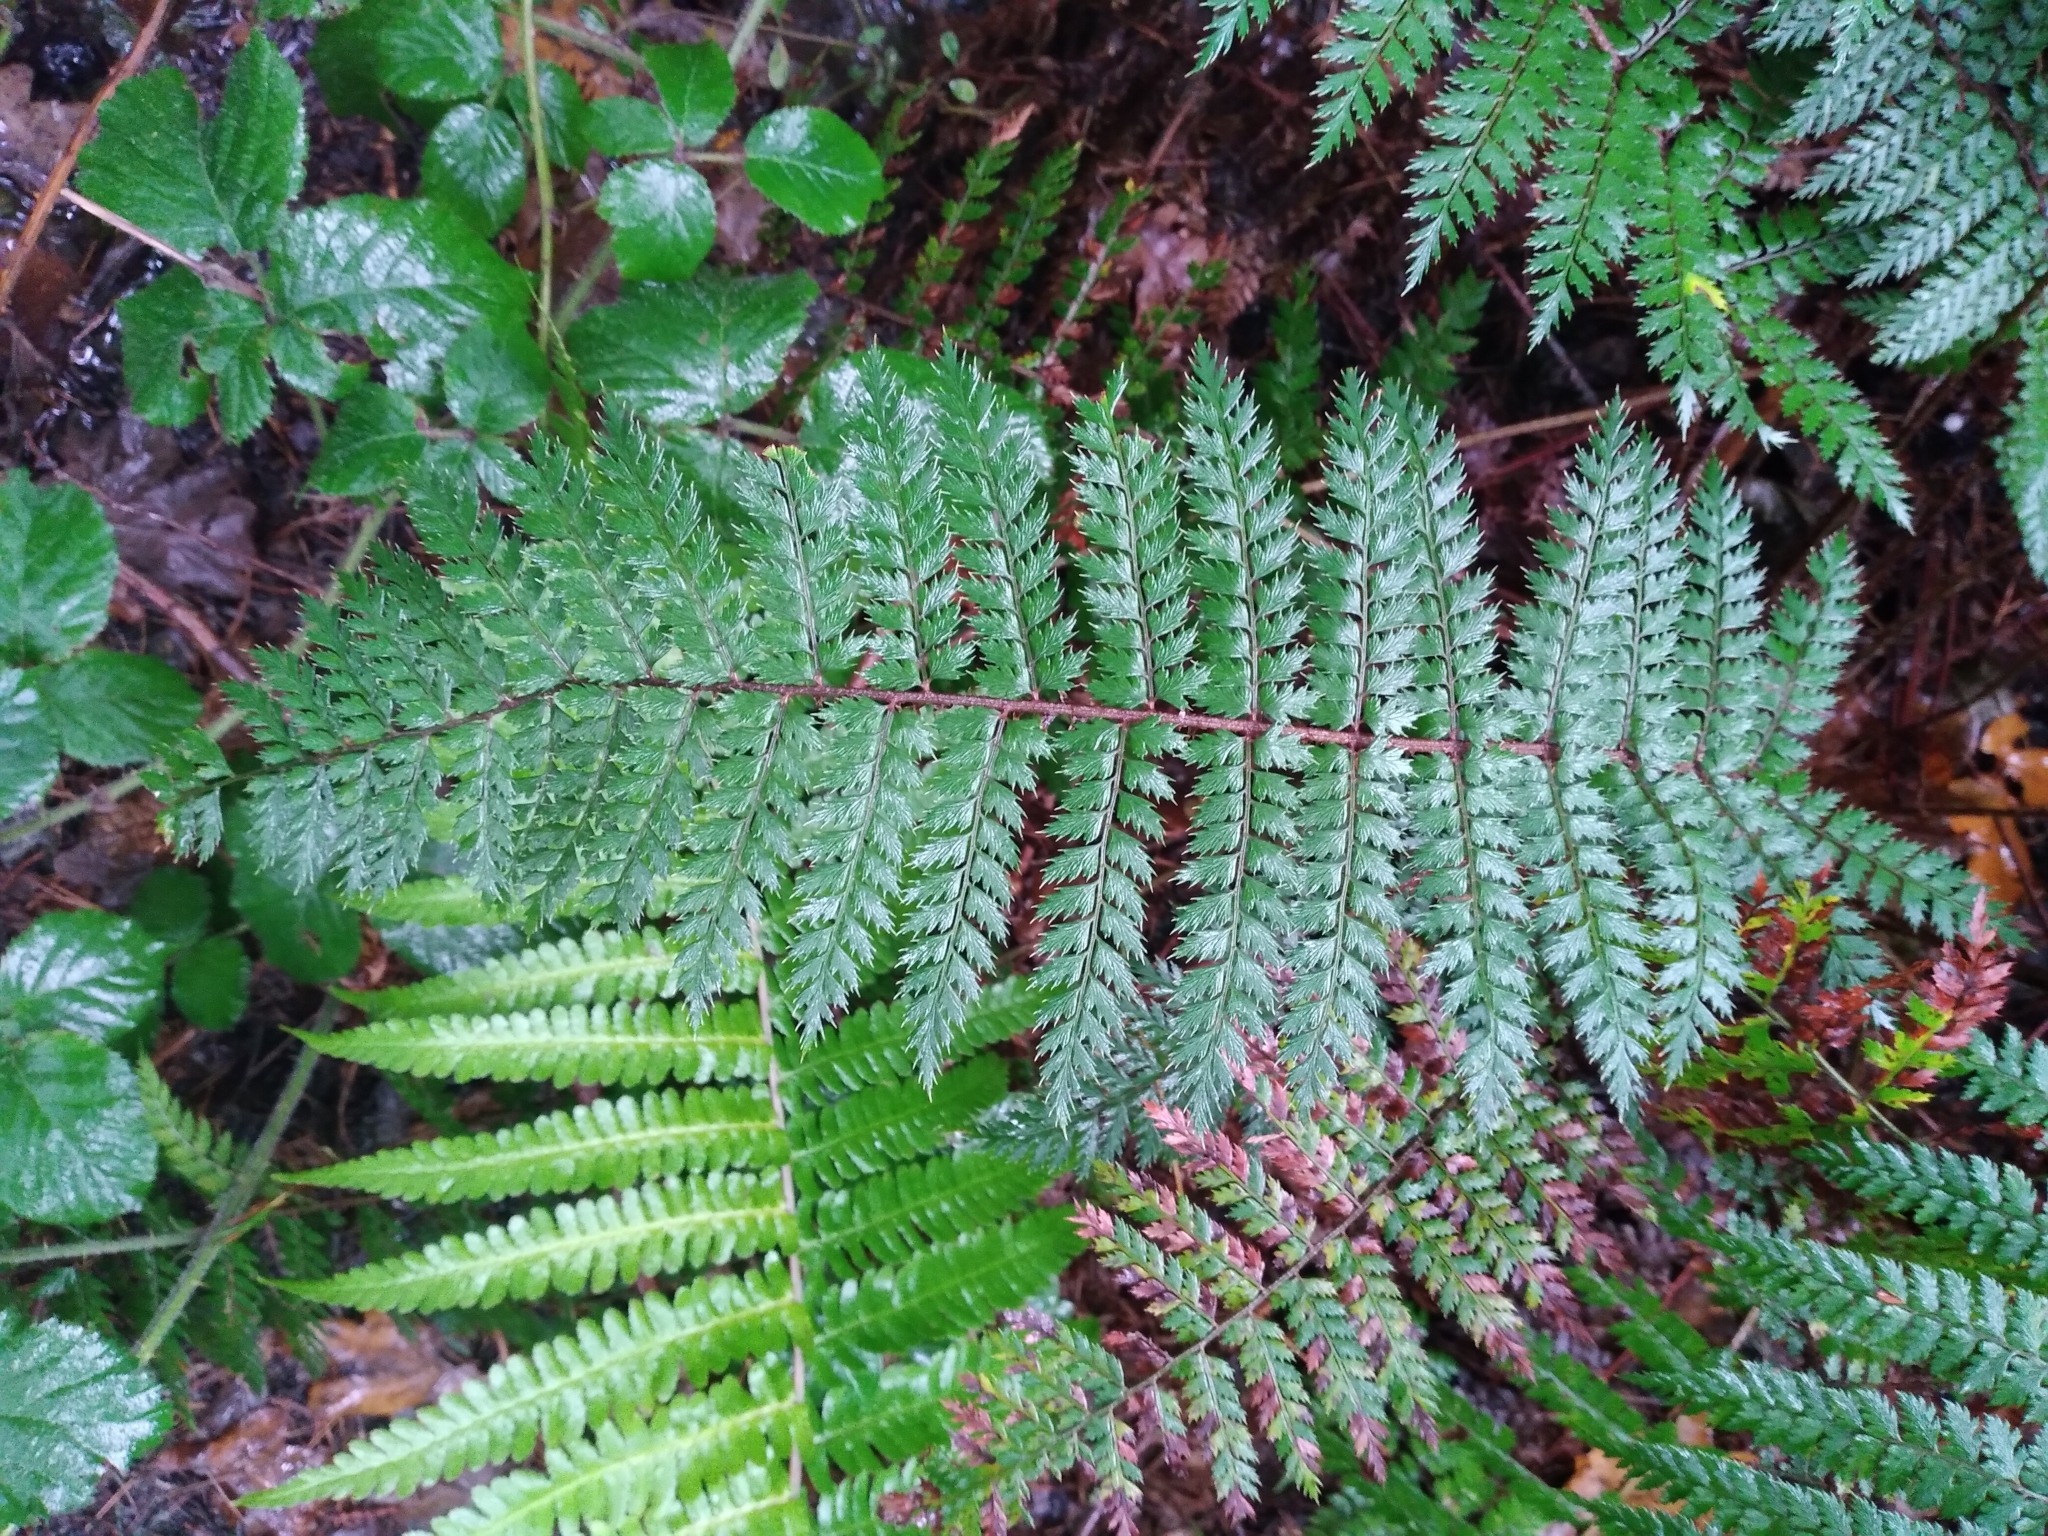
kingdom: Plantae
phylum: Tracheophyta
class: Polypodiopsida
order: Polypodiales
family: Dryopteridaceae
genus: Polystichum
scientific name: Polystichum vestitum
